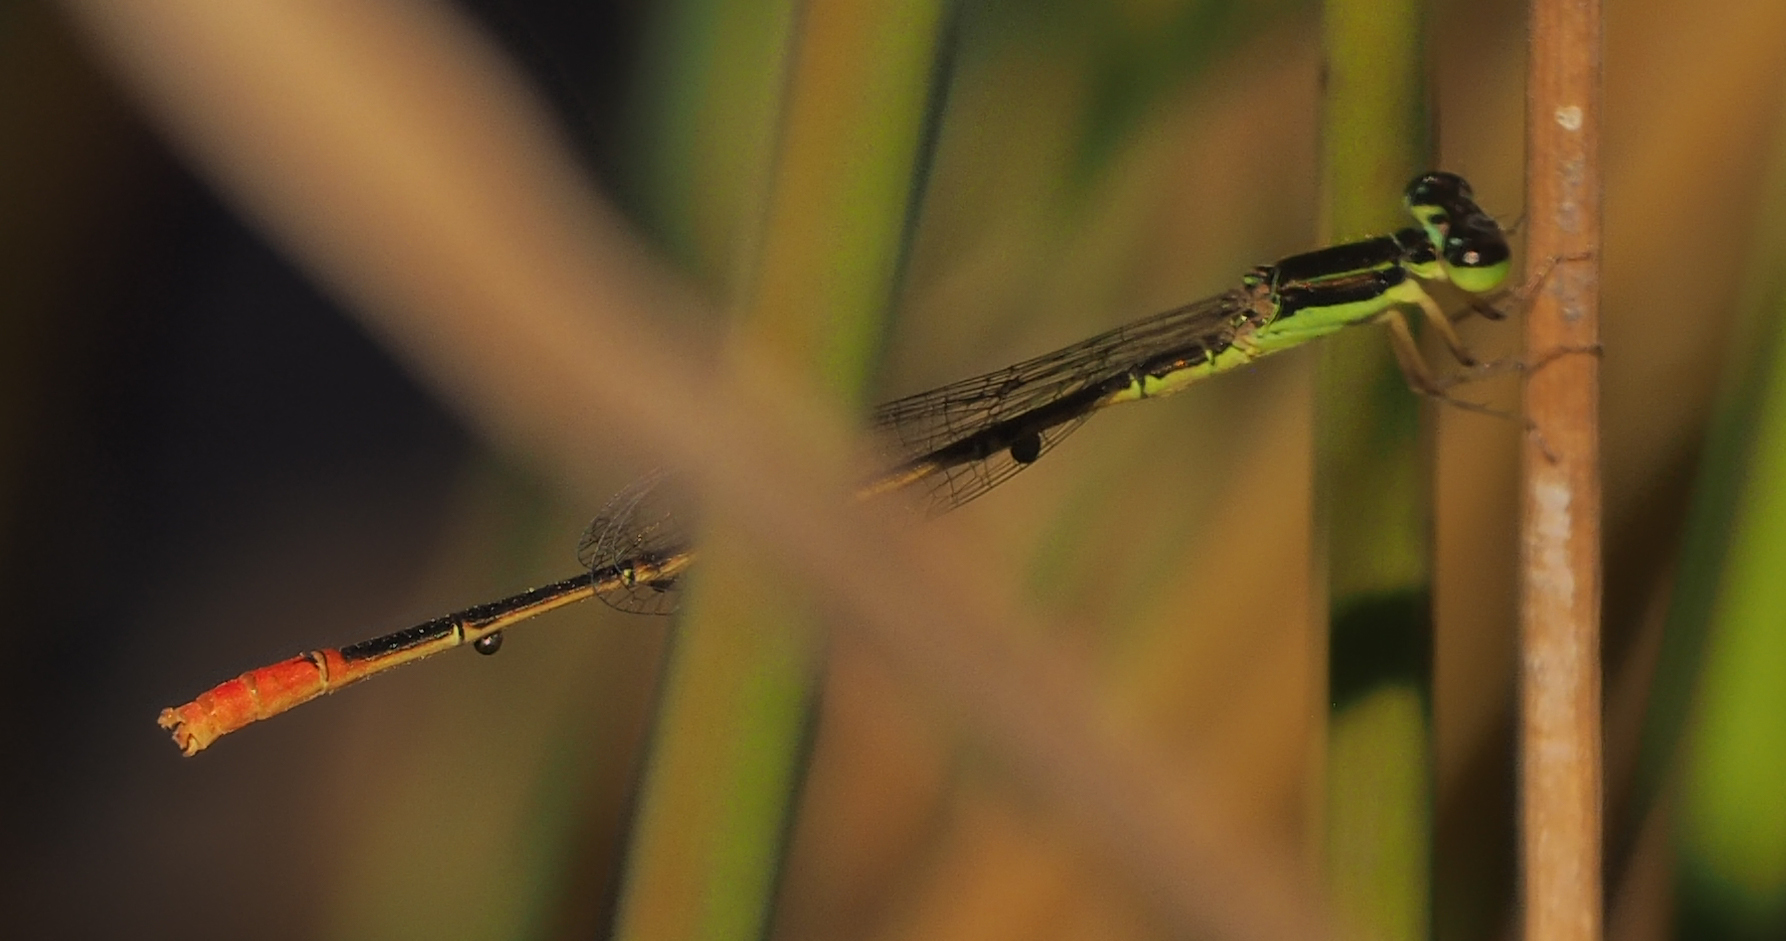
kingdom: Animalia
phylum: Arthropoda
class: Insecta
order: Odonata
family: Coenagrionidae
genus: Agriocnemis
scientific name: Agriocnemis exilis
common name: Little wisp
